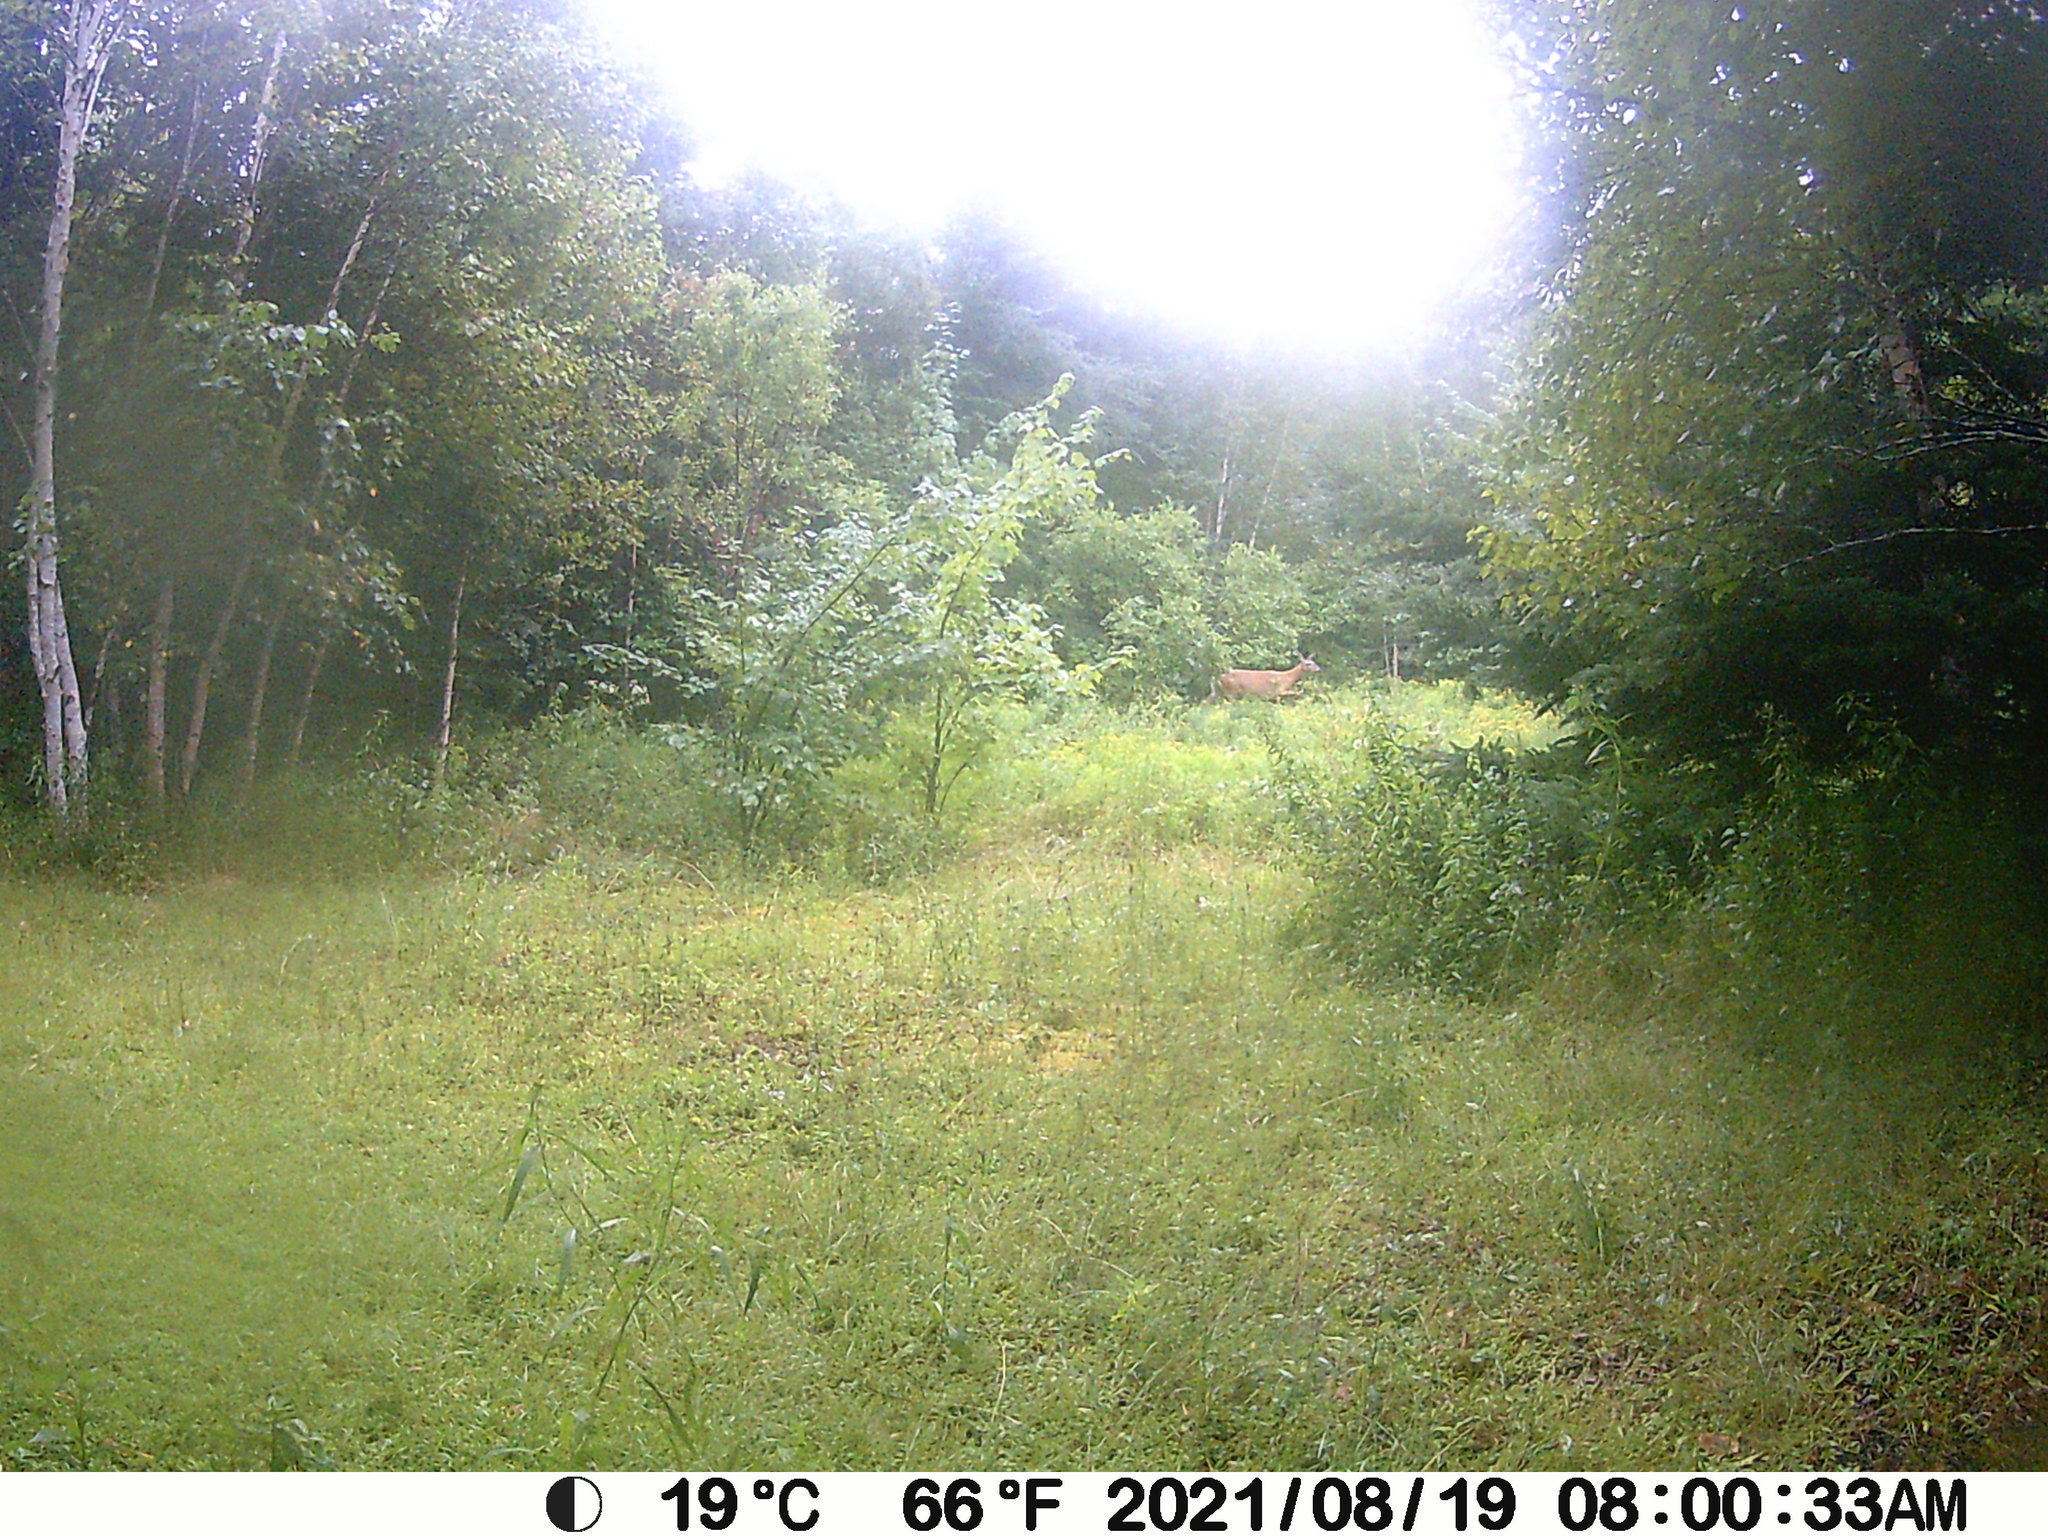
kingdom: Animalia
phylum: Chordata
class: Mammalia
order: Artiodactyla
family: Cervidae
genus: Odocoileus
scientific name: Odocoileus virginianus
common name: White-tailed deer
